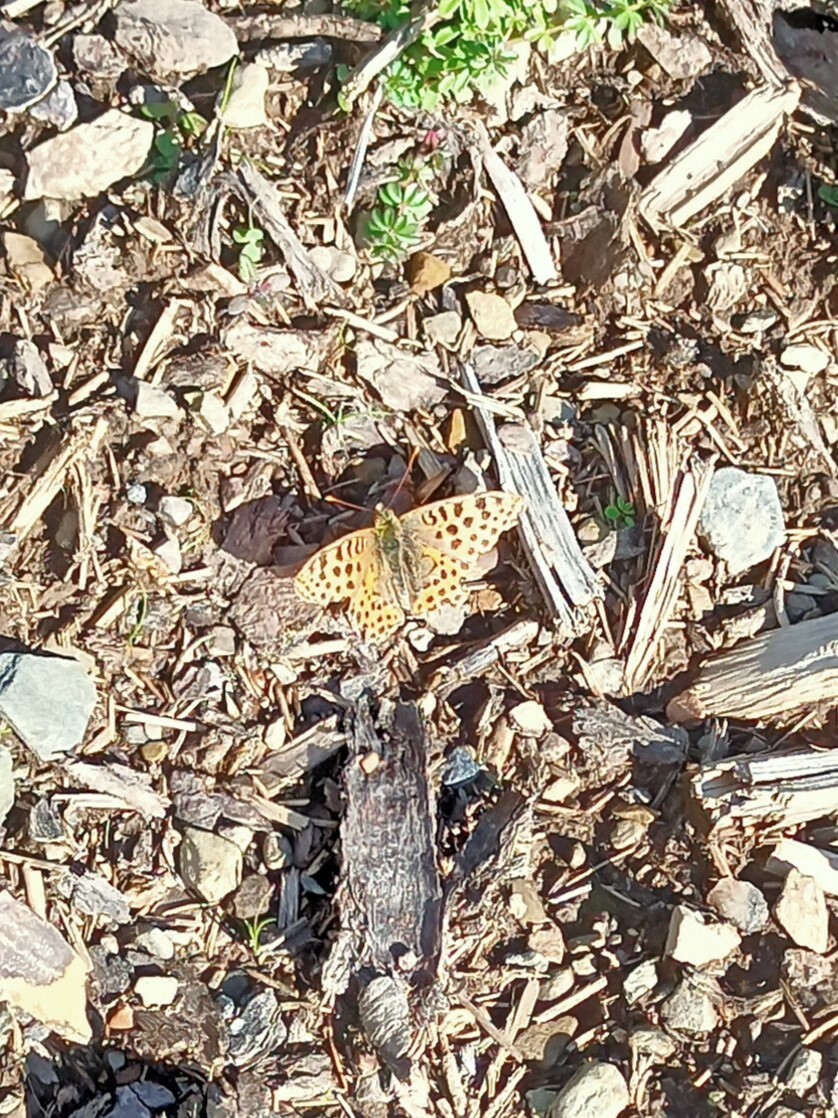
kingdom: Animalia
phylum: Arthropoda
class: Insecta
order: Lepidoptera
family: Nymphalidae
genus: Issoria
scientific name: Issoria lathonia
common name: Queen of spain fritillary
